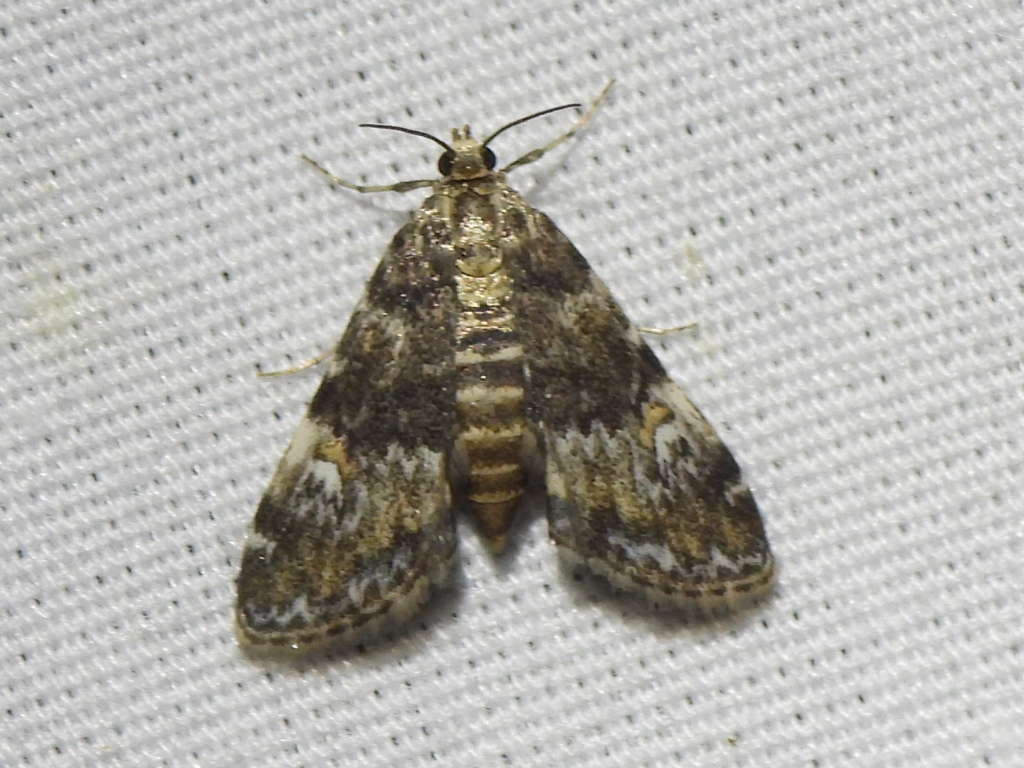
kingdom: Animalia
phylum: Arthropoda
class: Insecta
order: Lepidoptera
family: Crambidae
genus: Elophila
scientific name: Elophila obliteralis
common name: Waterlily leafcutter moth
